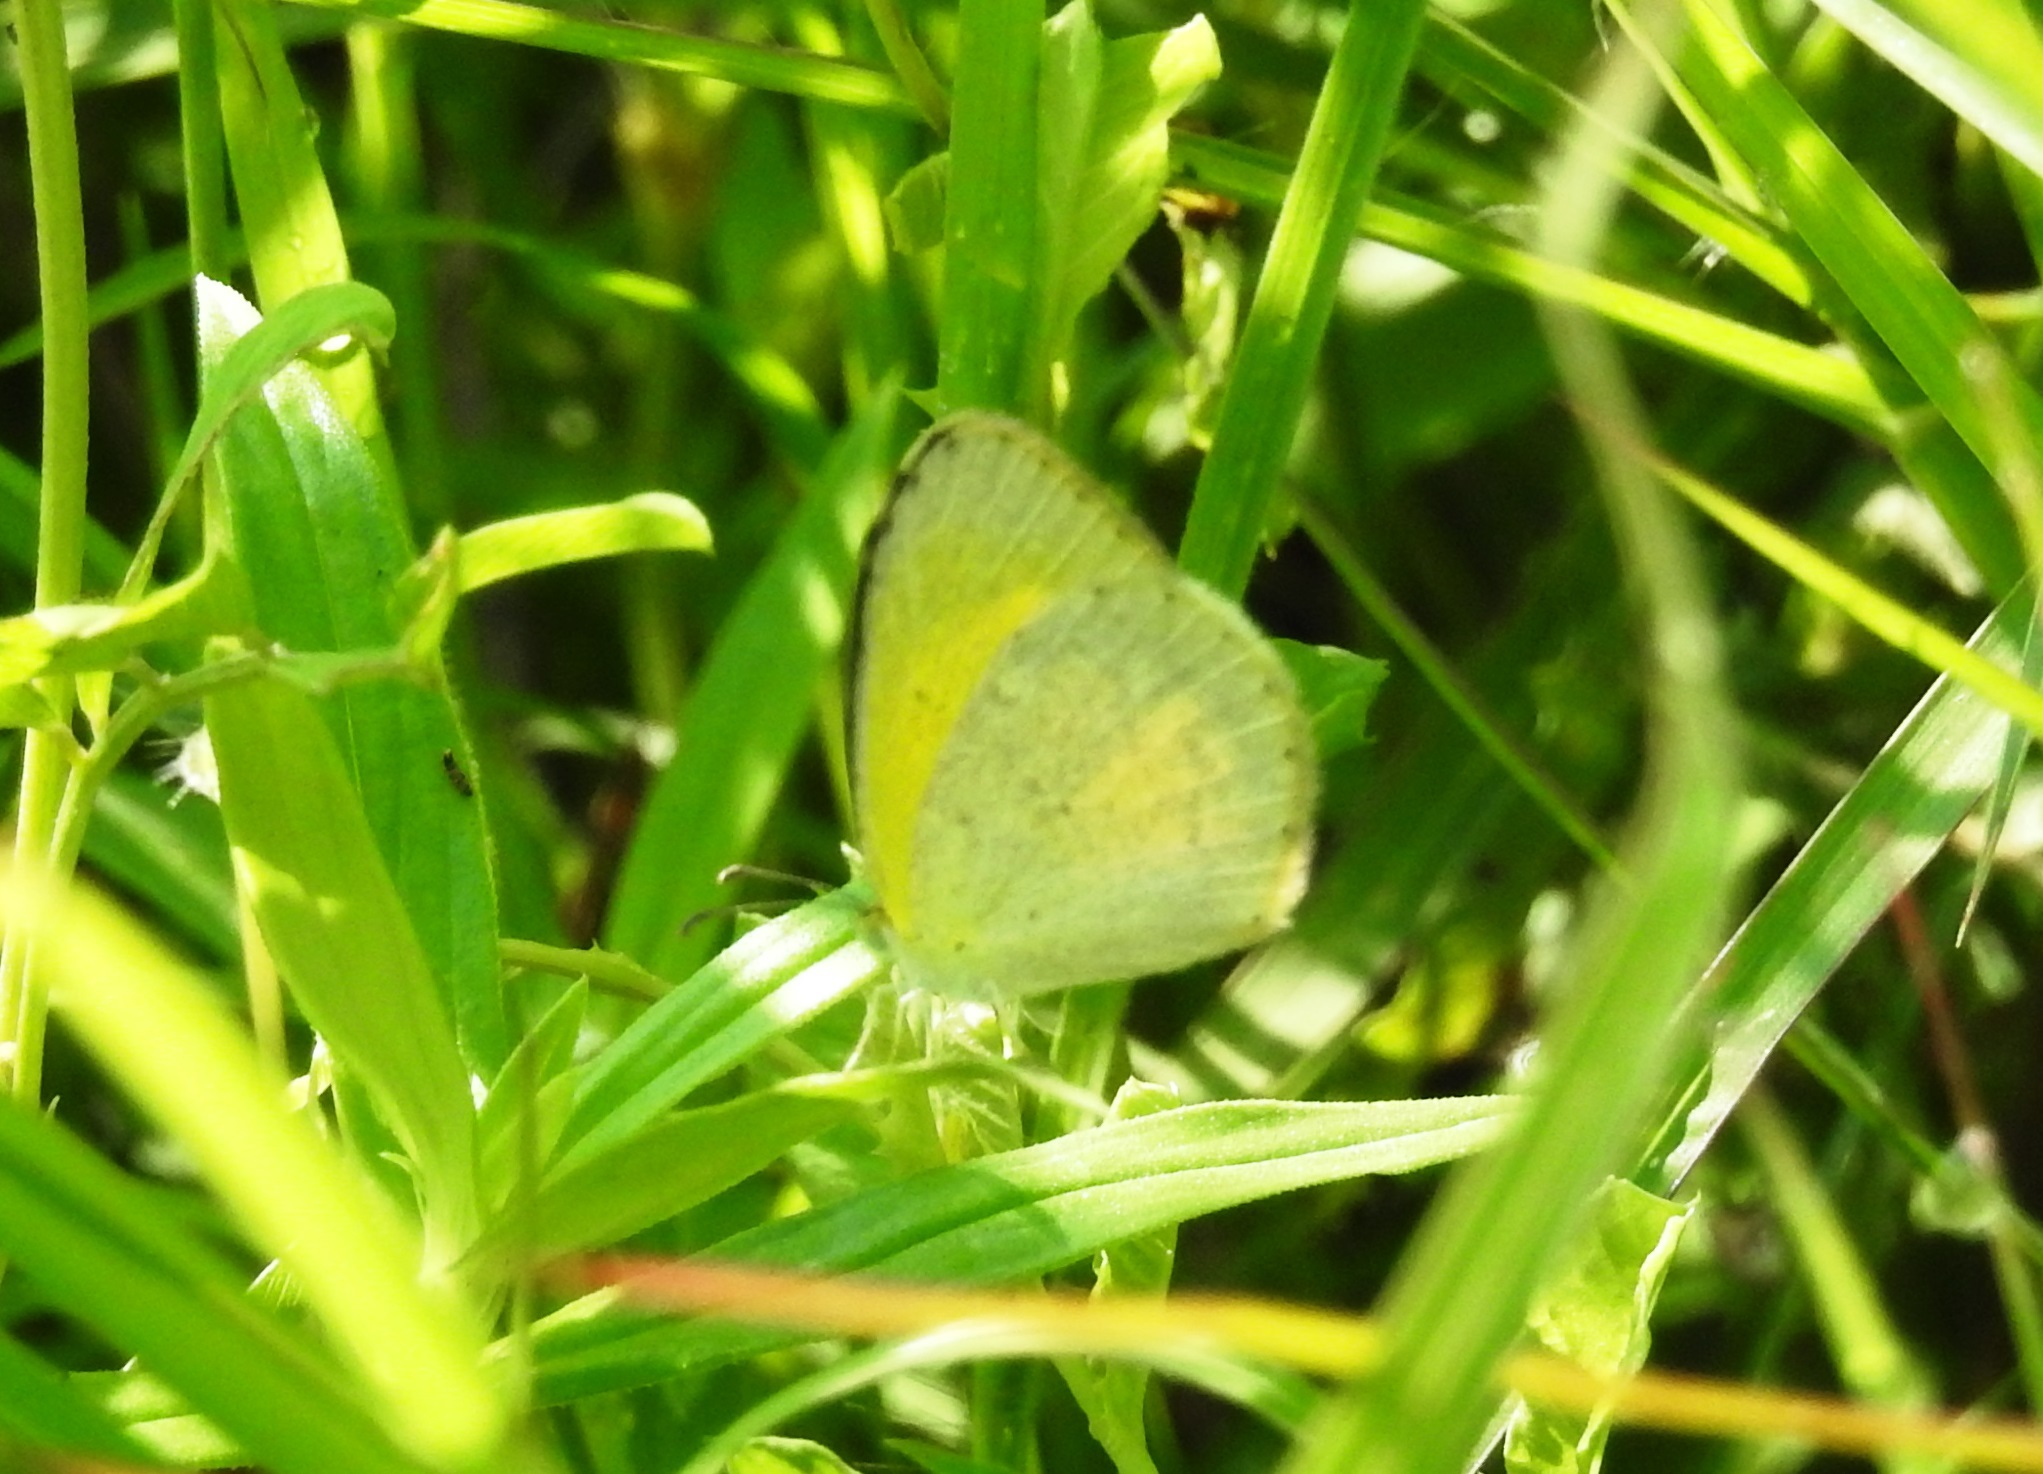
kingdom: Animalia
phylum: Arthropoda
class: Insecta
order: Lepidoptera
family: Pieridae
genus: Eurema
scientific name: Eurema brigitta
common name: Small grass yellow
